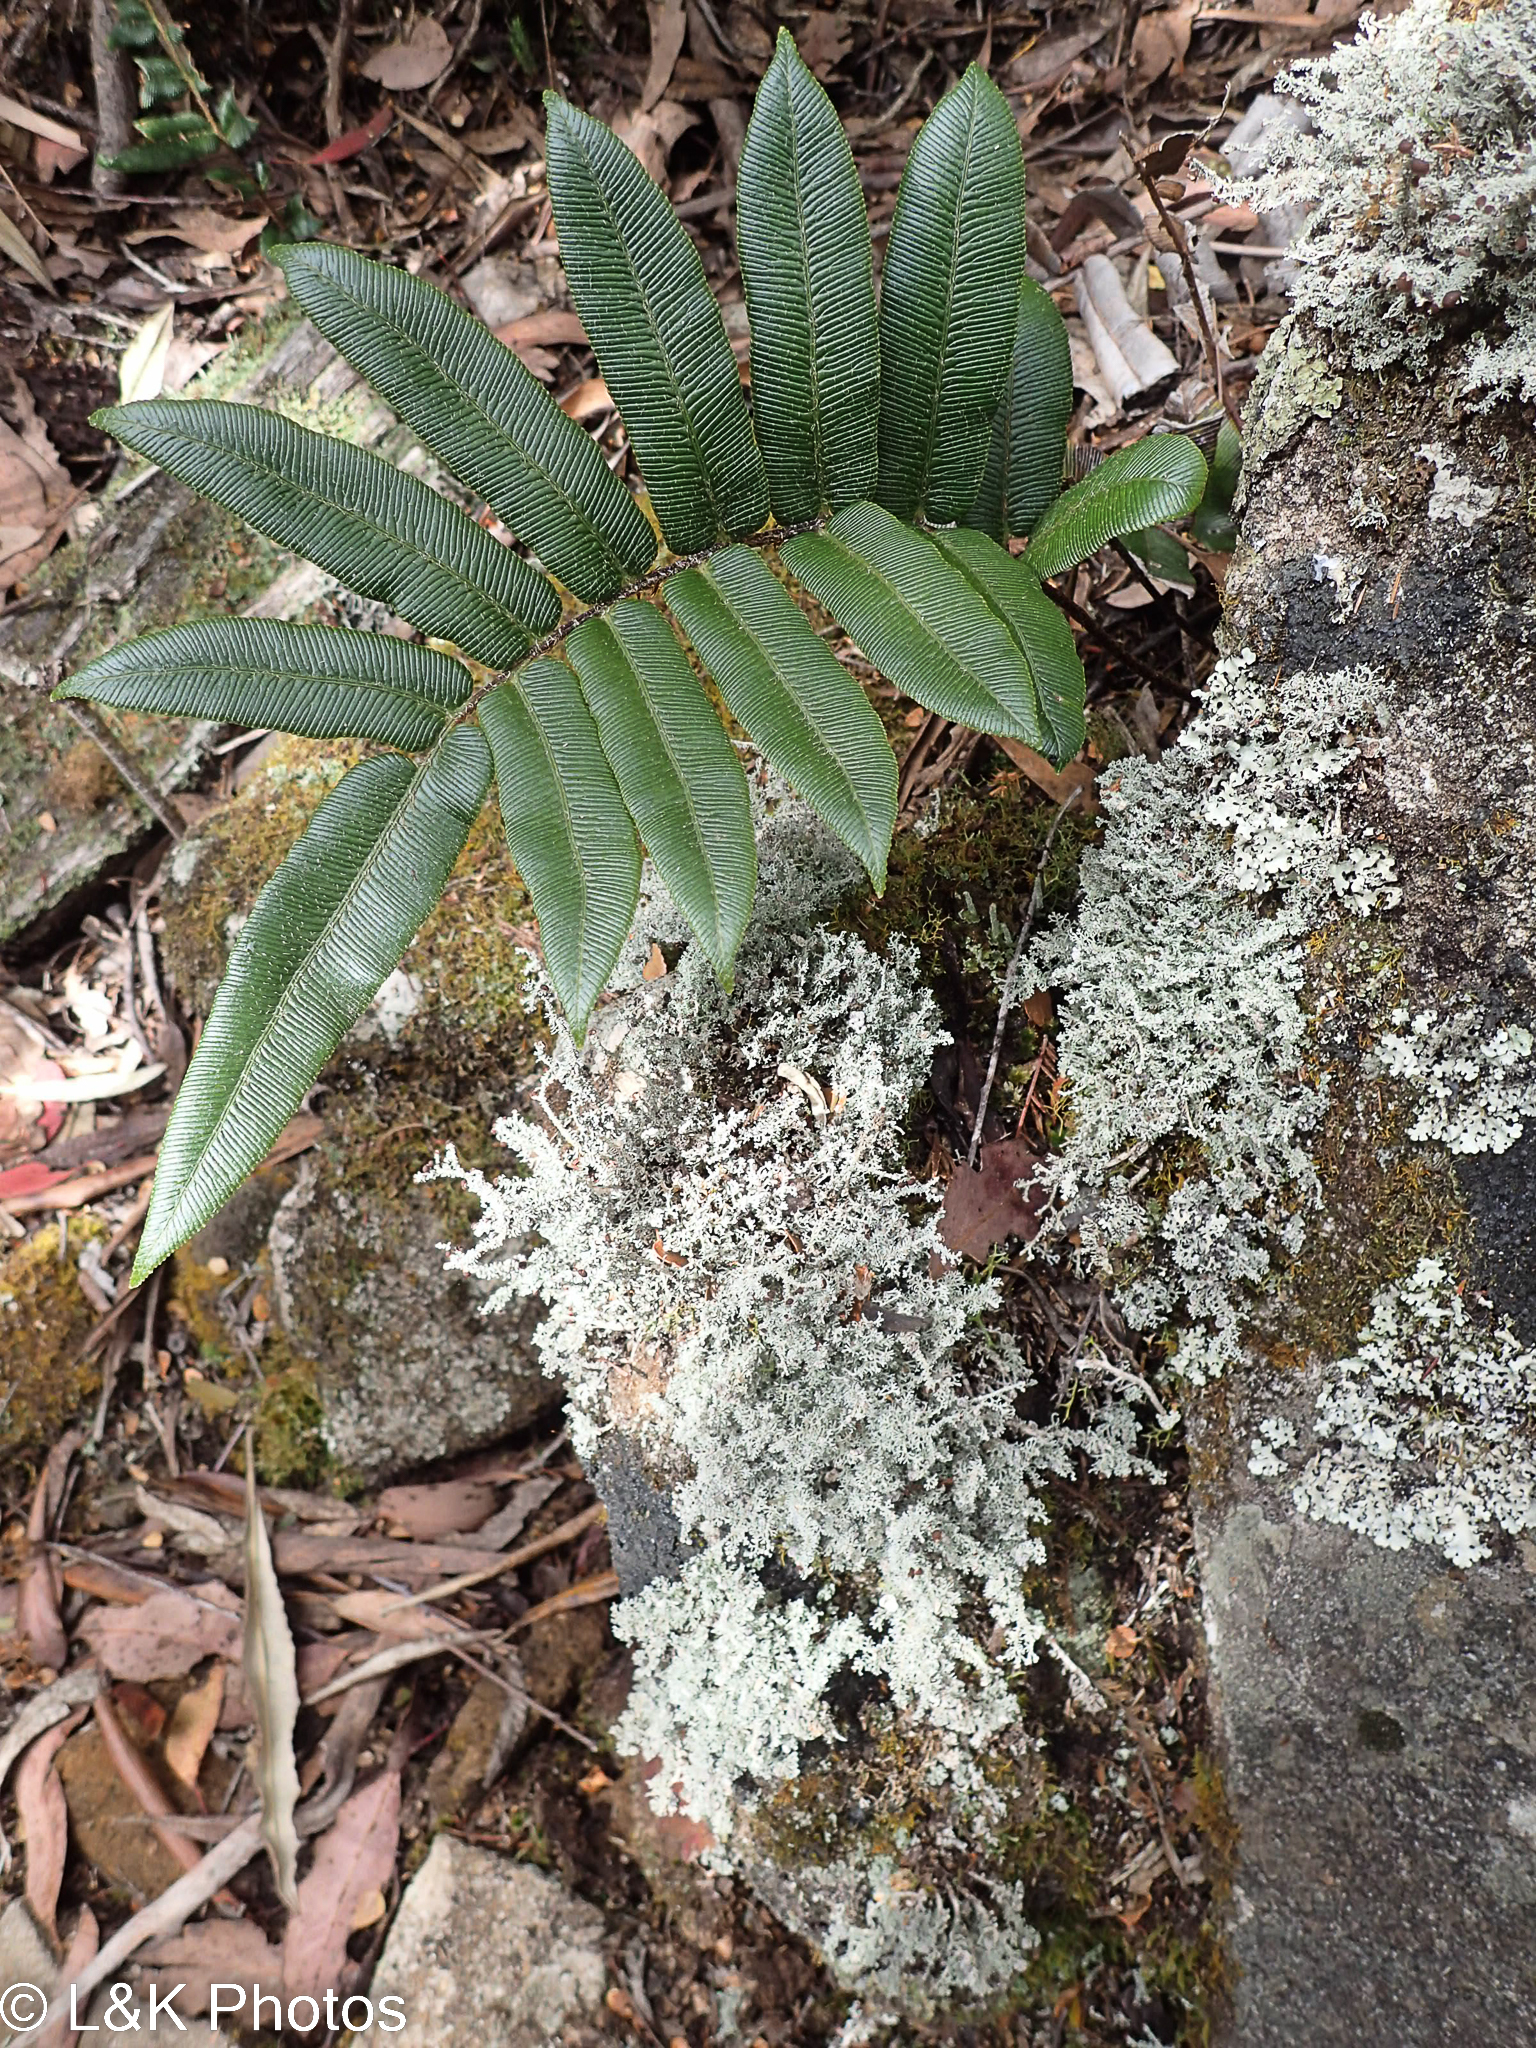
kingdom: Plantae
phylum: Tracheophyta
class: Polypodiopsida
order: Polypodiales
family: Blechnaceae
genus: Parablechnum
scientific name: Parablechnum wattsii
